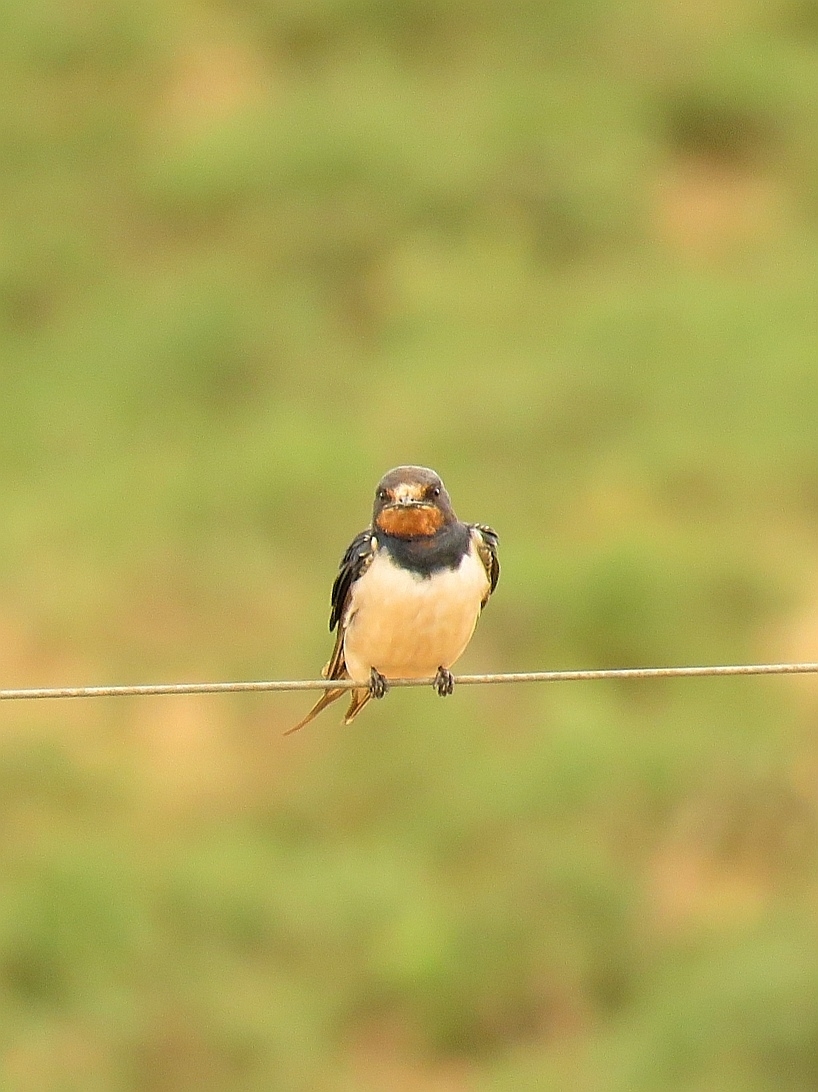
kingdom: Animalia
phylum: Chordata
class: Aves
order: Passeriformes
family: Hirundinidae
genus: Hirundo
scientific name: Hirundo rustica
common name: Barn swallow
